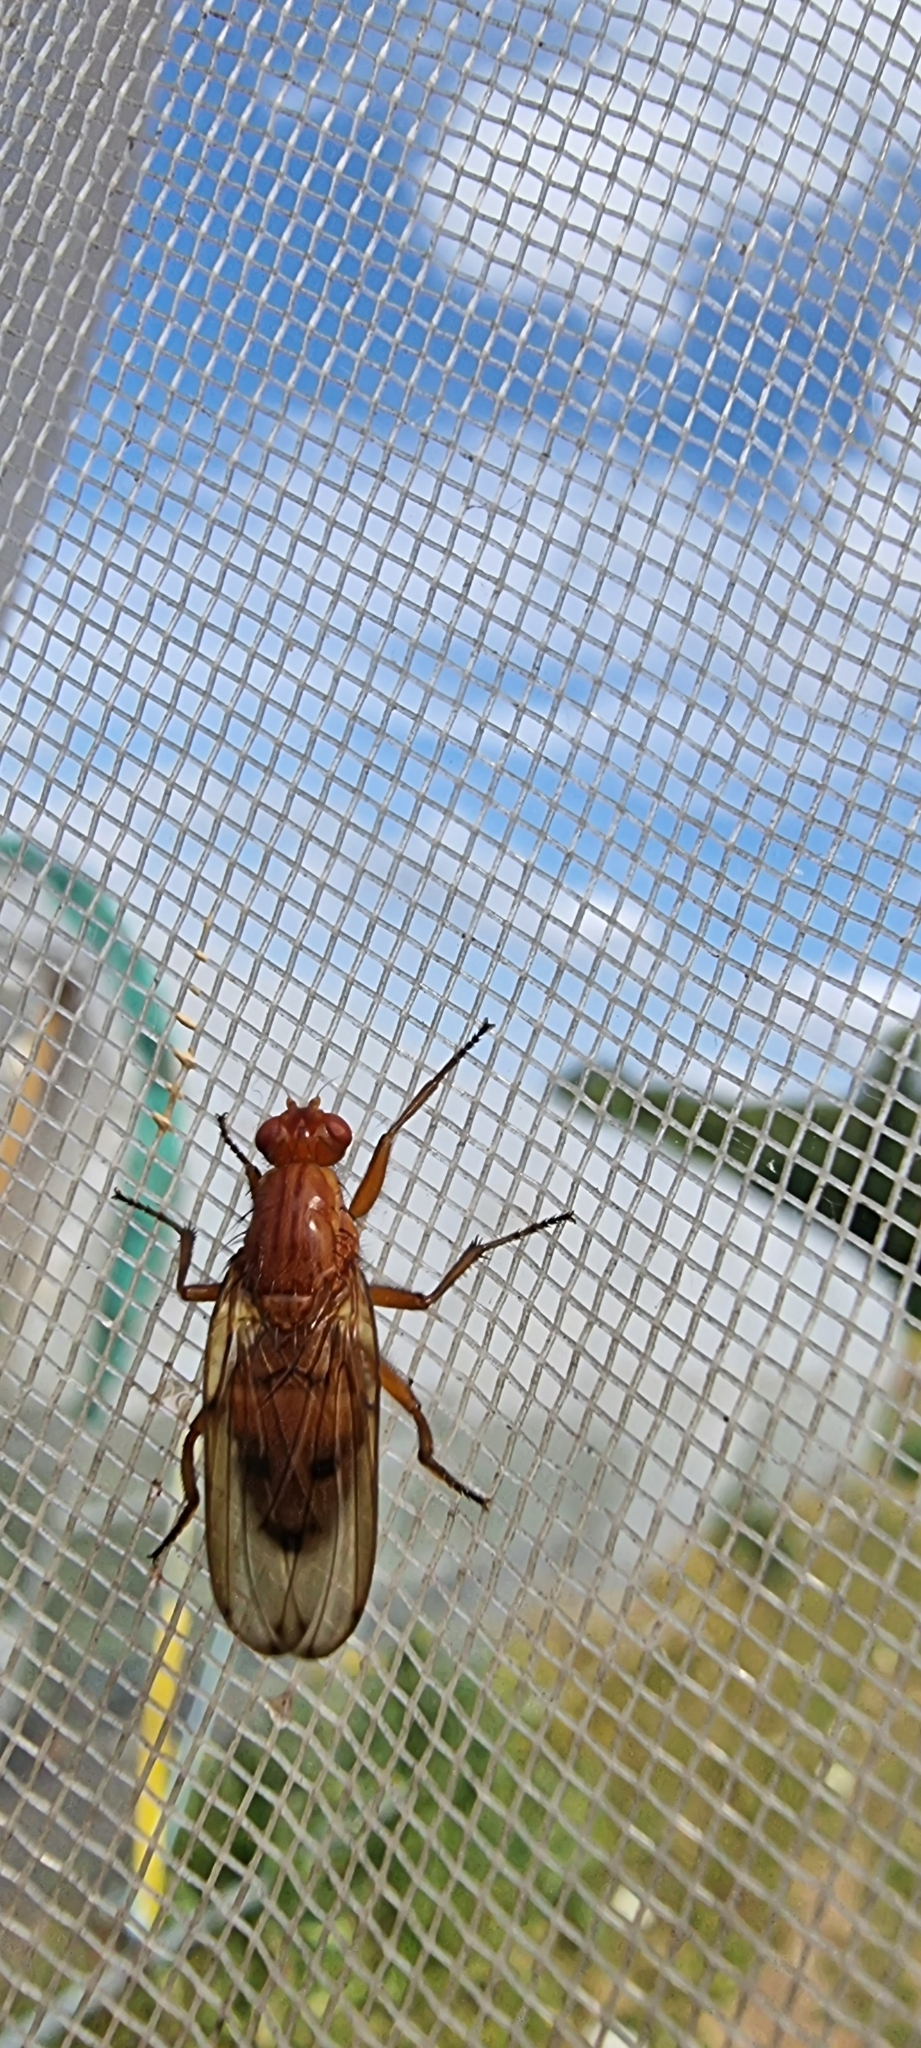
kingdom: Animalia
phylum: Arthropoda
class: Insecta
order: Diptera
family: Dryomyzidae
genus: Dryomyza
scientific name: Dryomyza anilis
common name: Marsh fly
